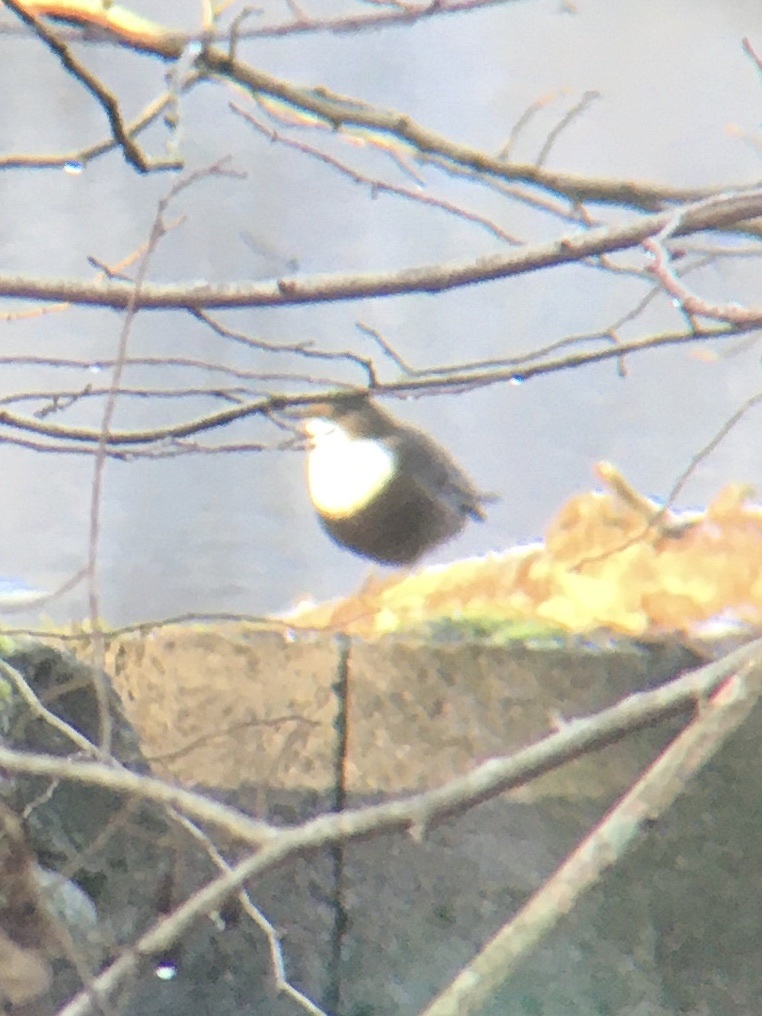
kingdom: Animalia
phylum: Chordata
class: Aves
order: Passeriformes
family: Cinclidae
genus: Cinclus
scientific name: Cinclus cinclus
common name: White-throated dipper
